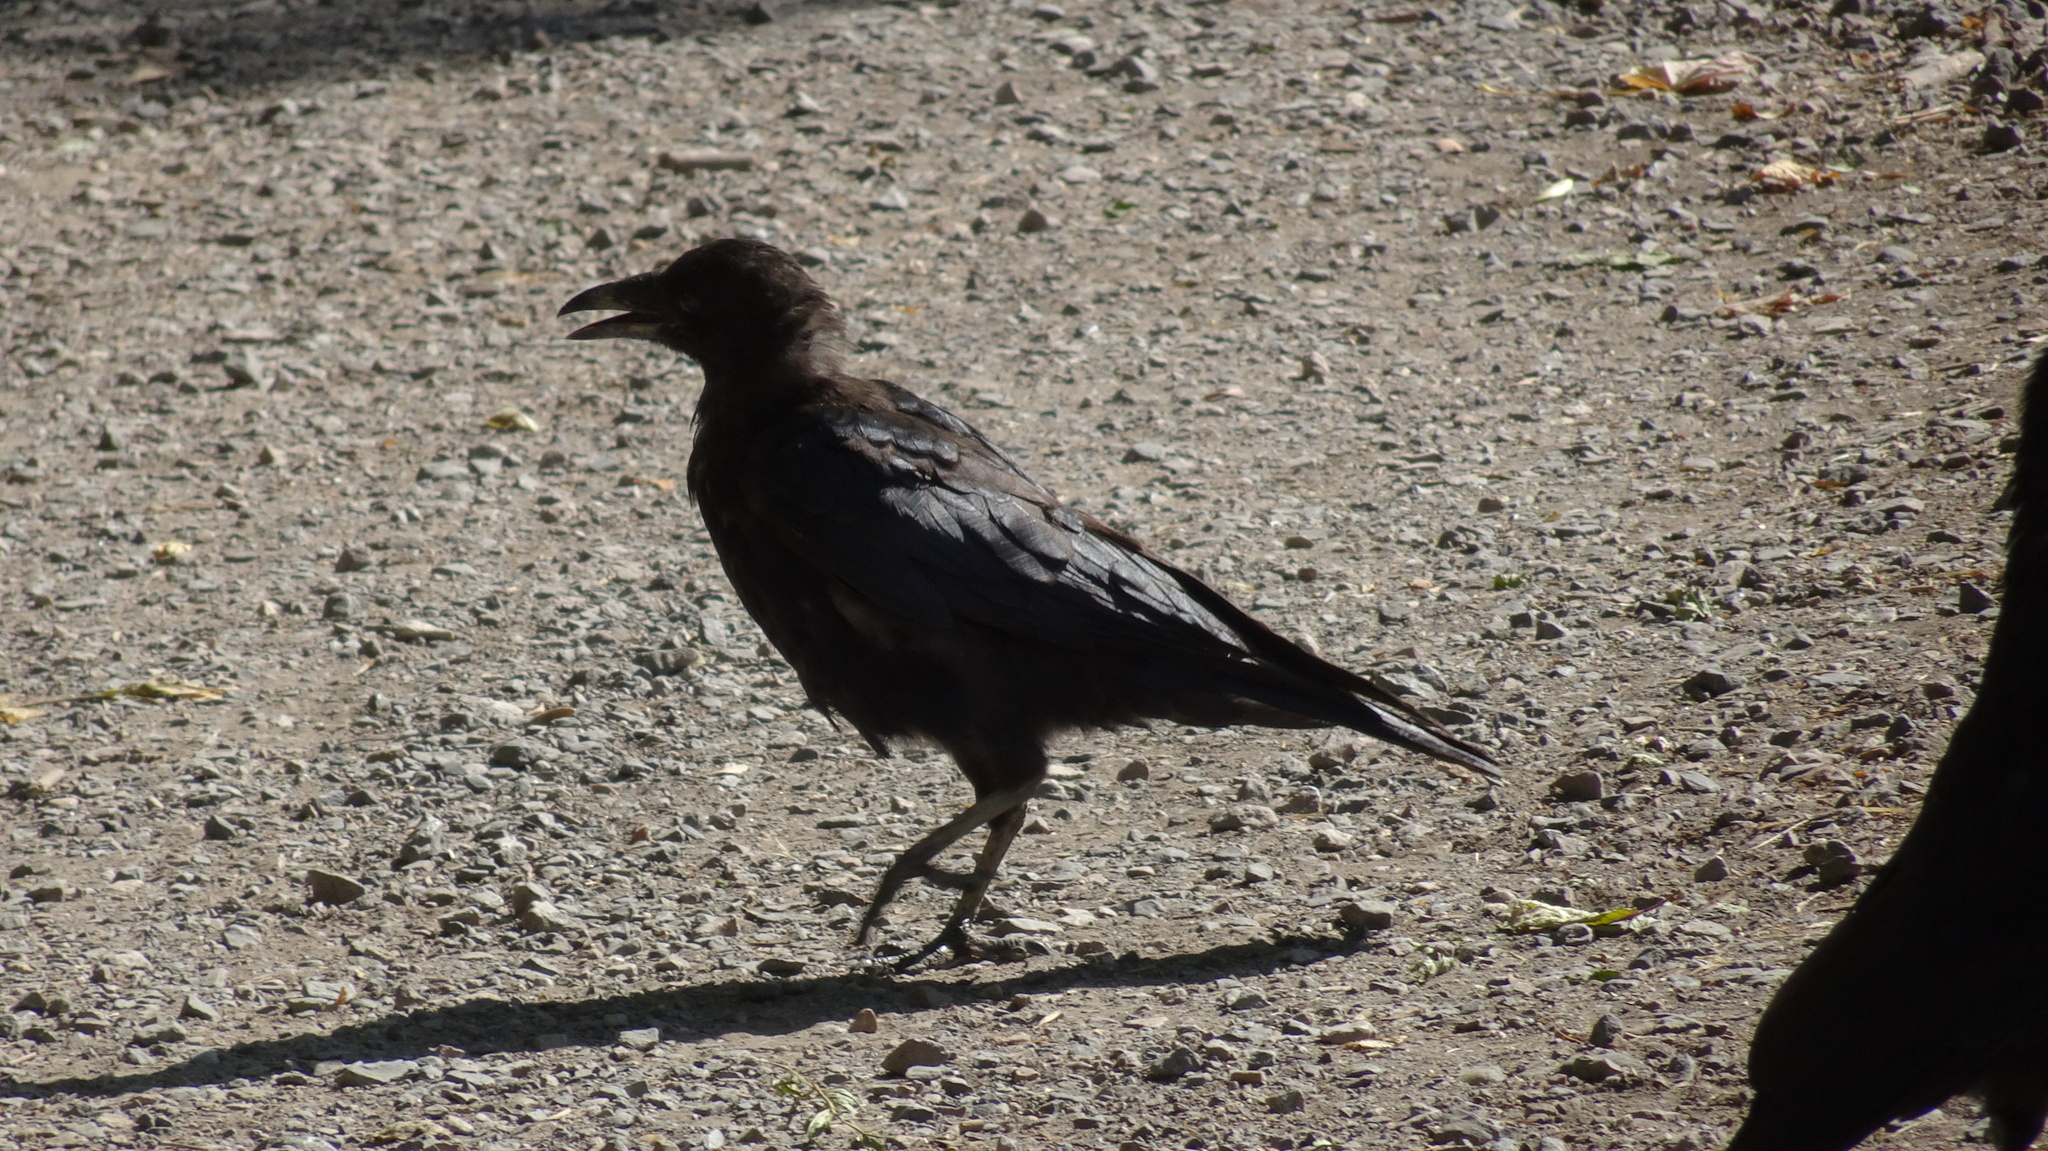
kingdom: Animalia
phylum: Chordata
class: Aves
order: Passeriformes
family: Corvidae
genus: Corvus
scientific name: Corvus corone
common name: Carrion crow
